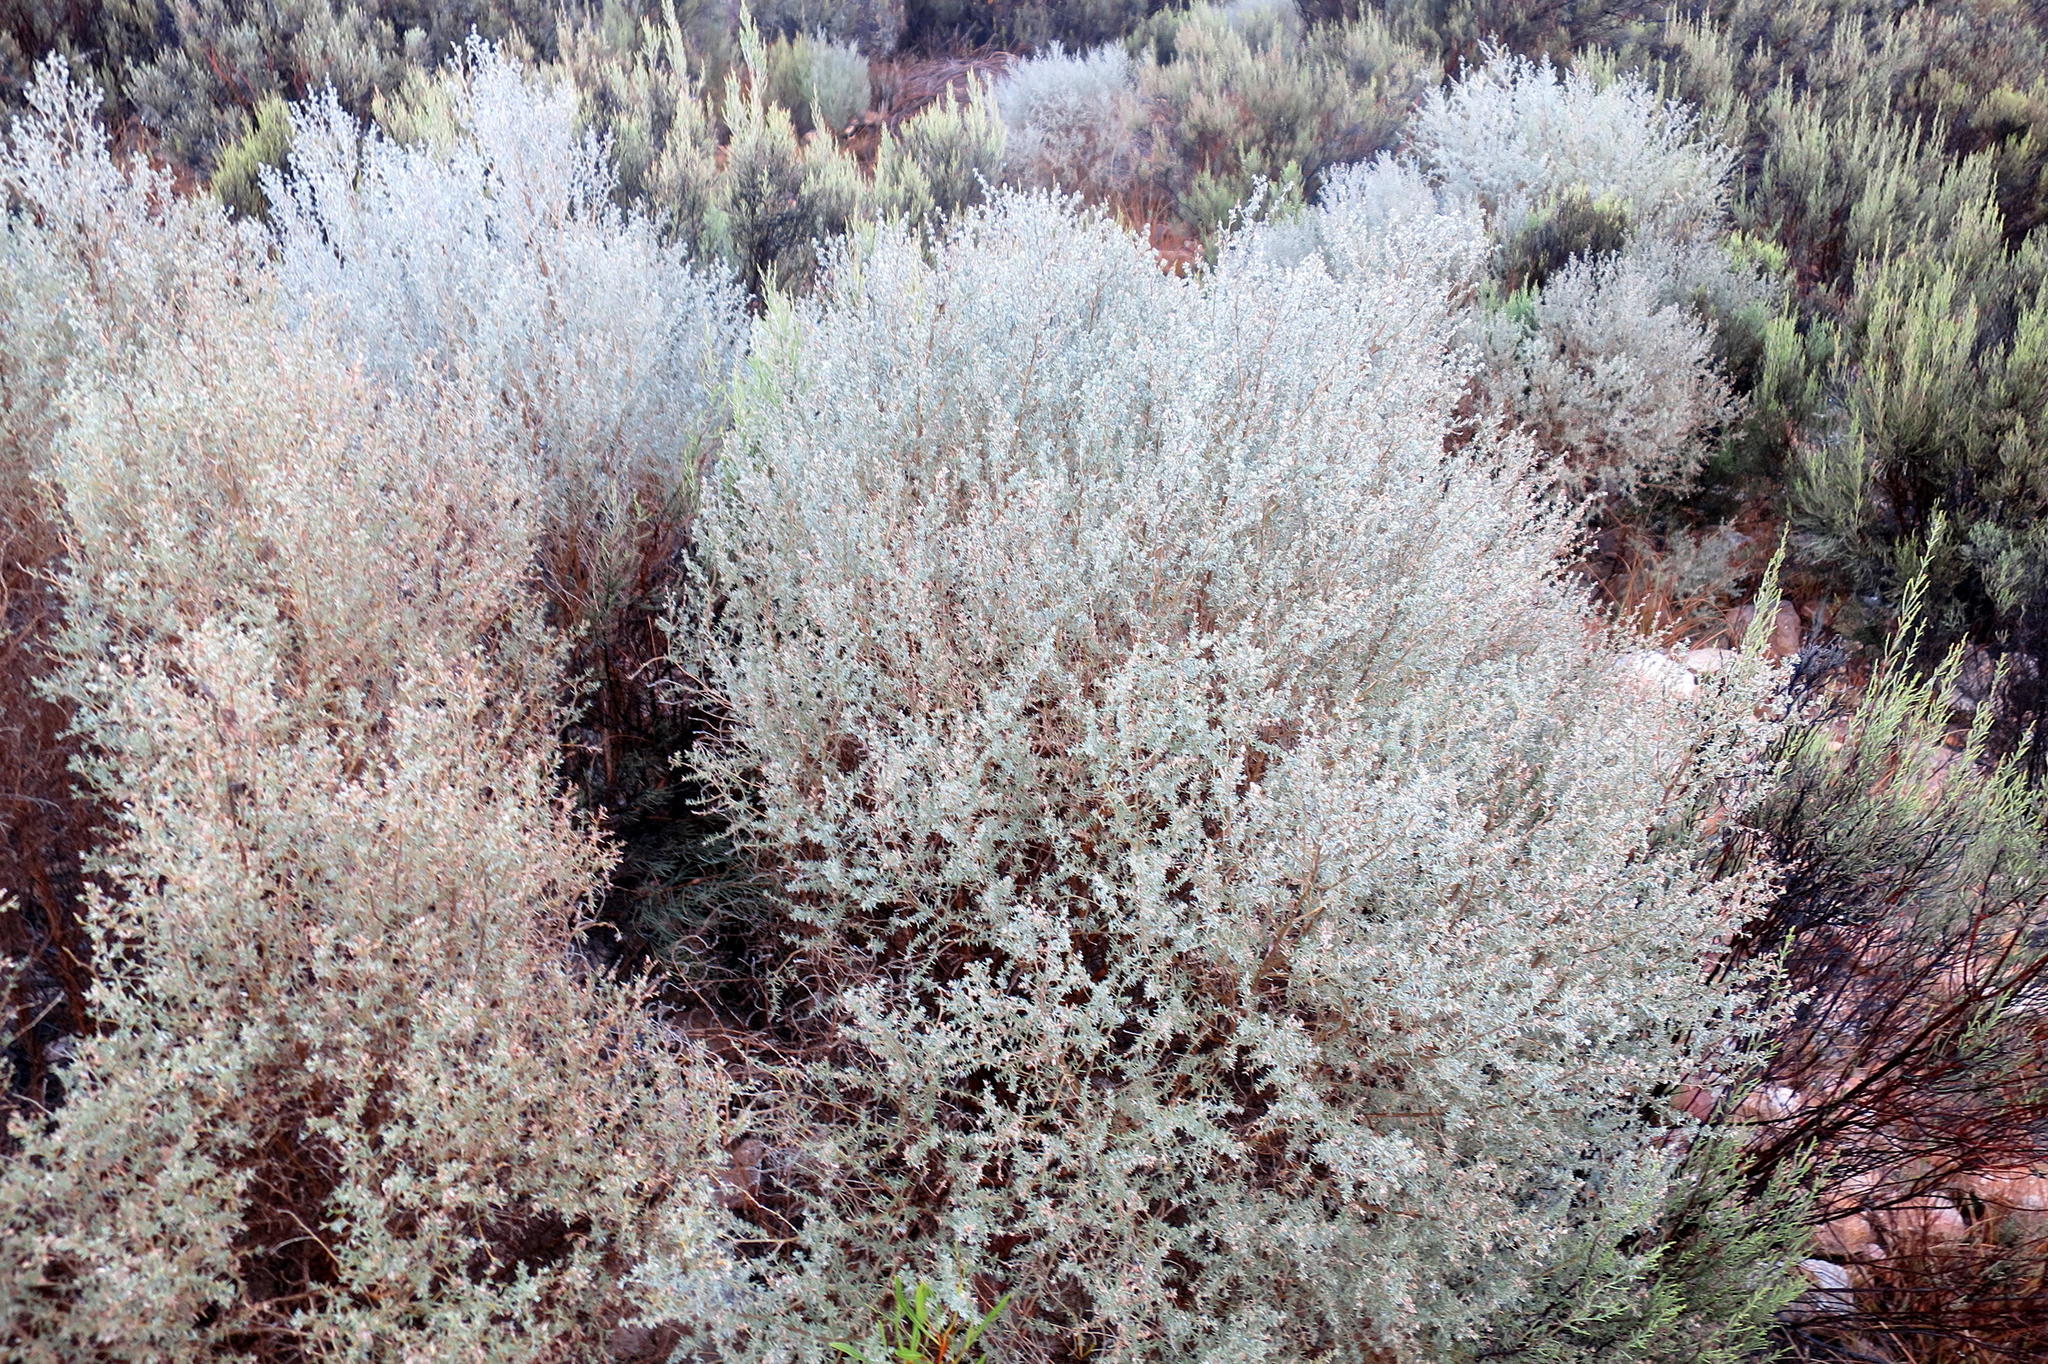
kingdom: Plantae
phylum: Tracheophyta
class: Magnoliopsida
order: Fabales
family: Fabaceae
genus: Aspalathus
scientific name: Aspalathus pedunculata
